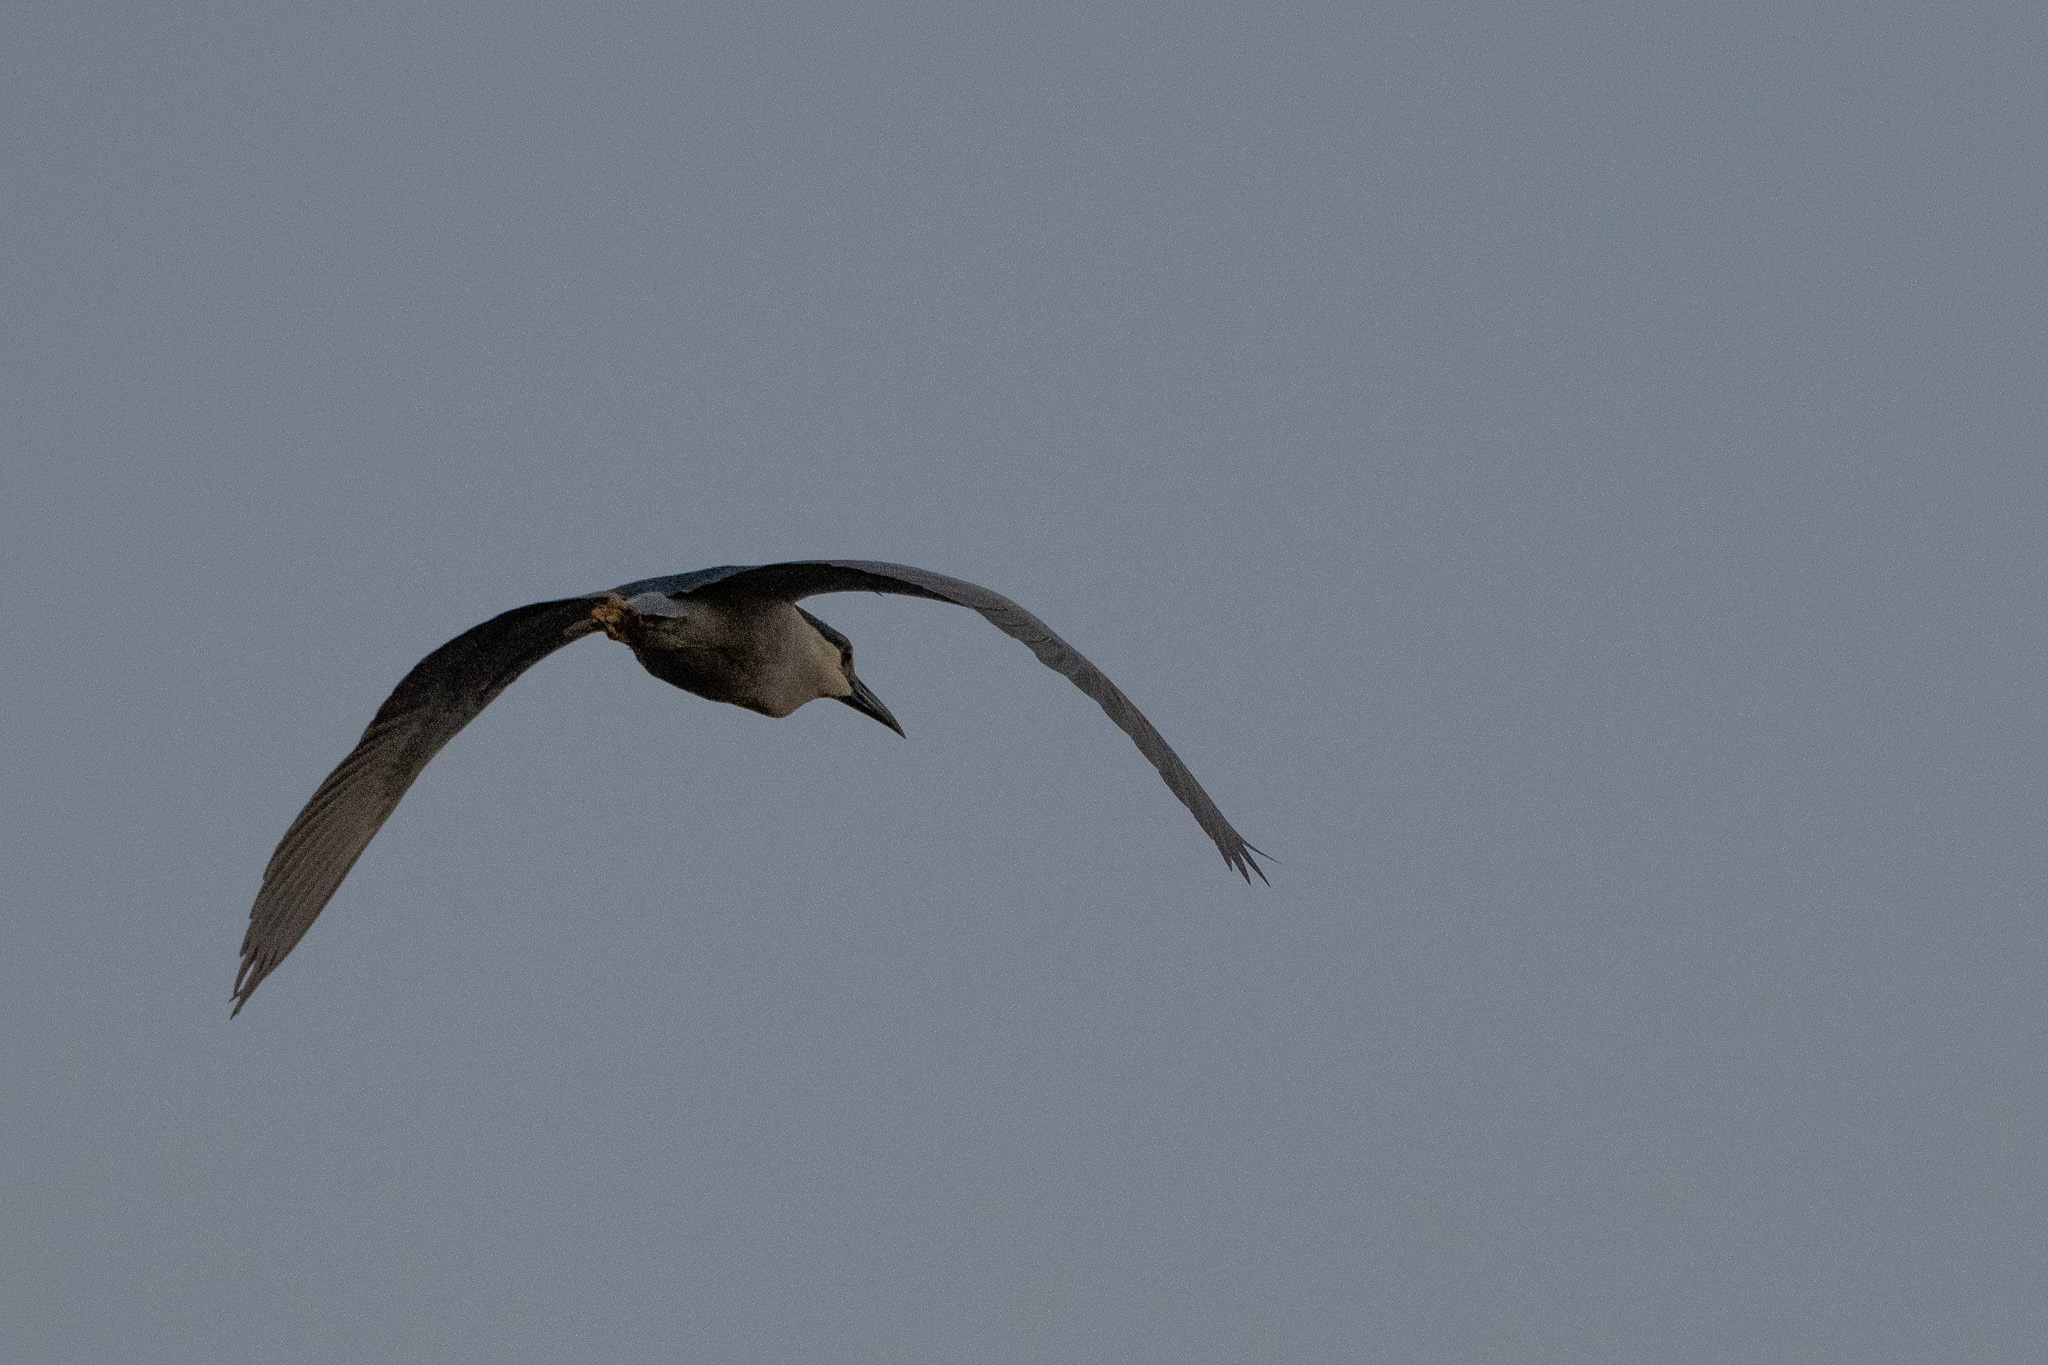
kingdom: Animalia
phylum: Chordata
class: Aves
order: Pelecaniformes
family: Ardeidae
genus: Nycticorax
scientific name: Nycticorax nycticorax
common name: Black-crowned night heron
